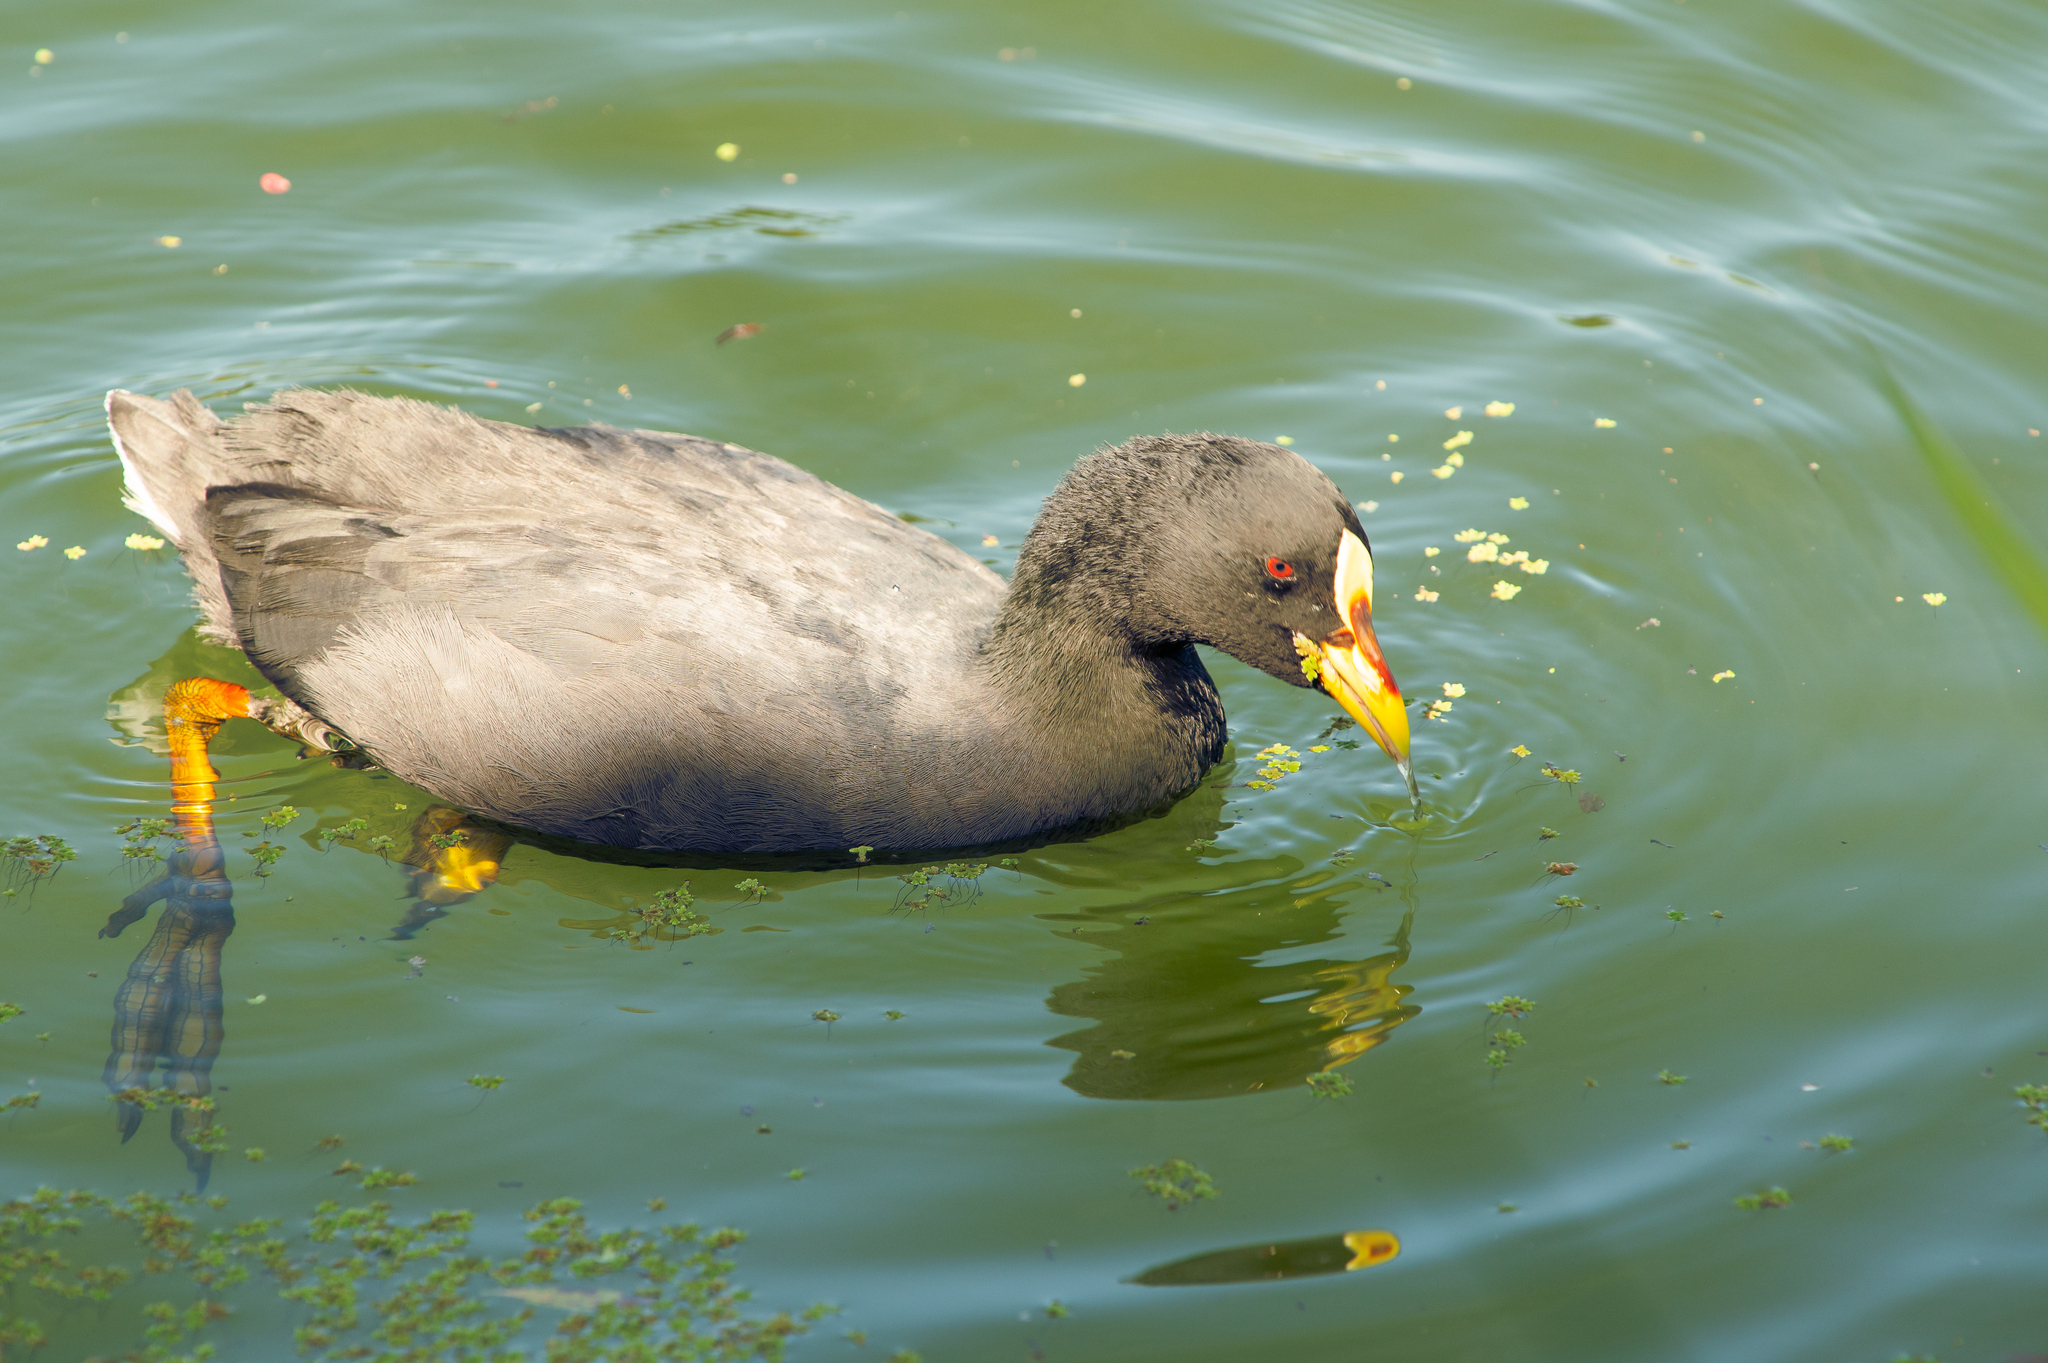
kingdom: Animalia
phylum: Chordata
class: Aves
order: Gruiformes
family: Rallidae
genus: Fulica
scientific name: Fulica armillata
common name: Red-gartered coot
